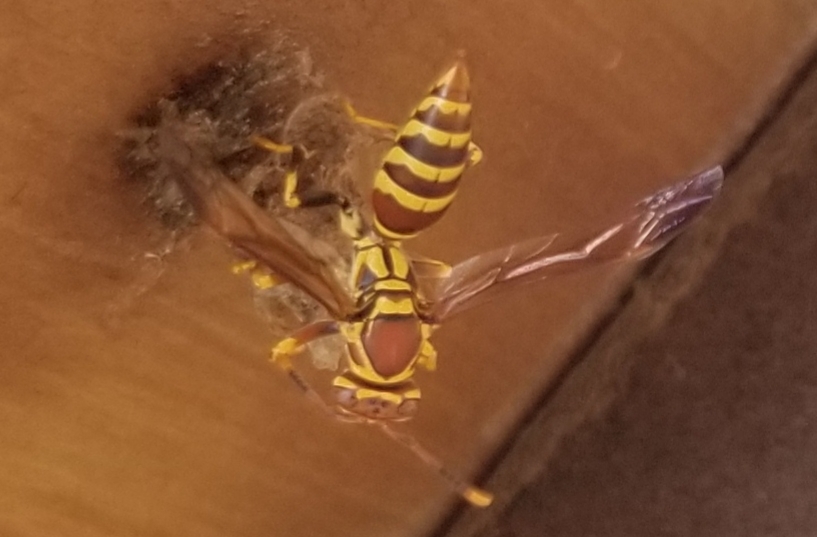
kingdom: Animalia
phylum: Arthropoda
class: Insecta
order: Hymenoptera
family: Eumenidae
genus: Polistes
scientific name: Polistes exclamans
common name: Paper wasp
